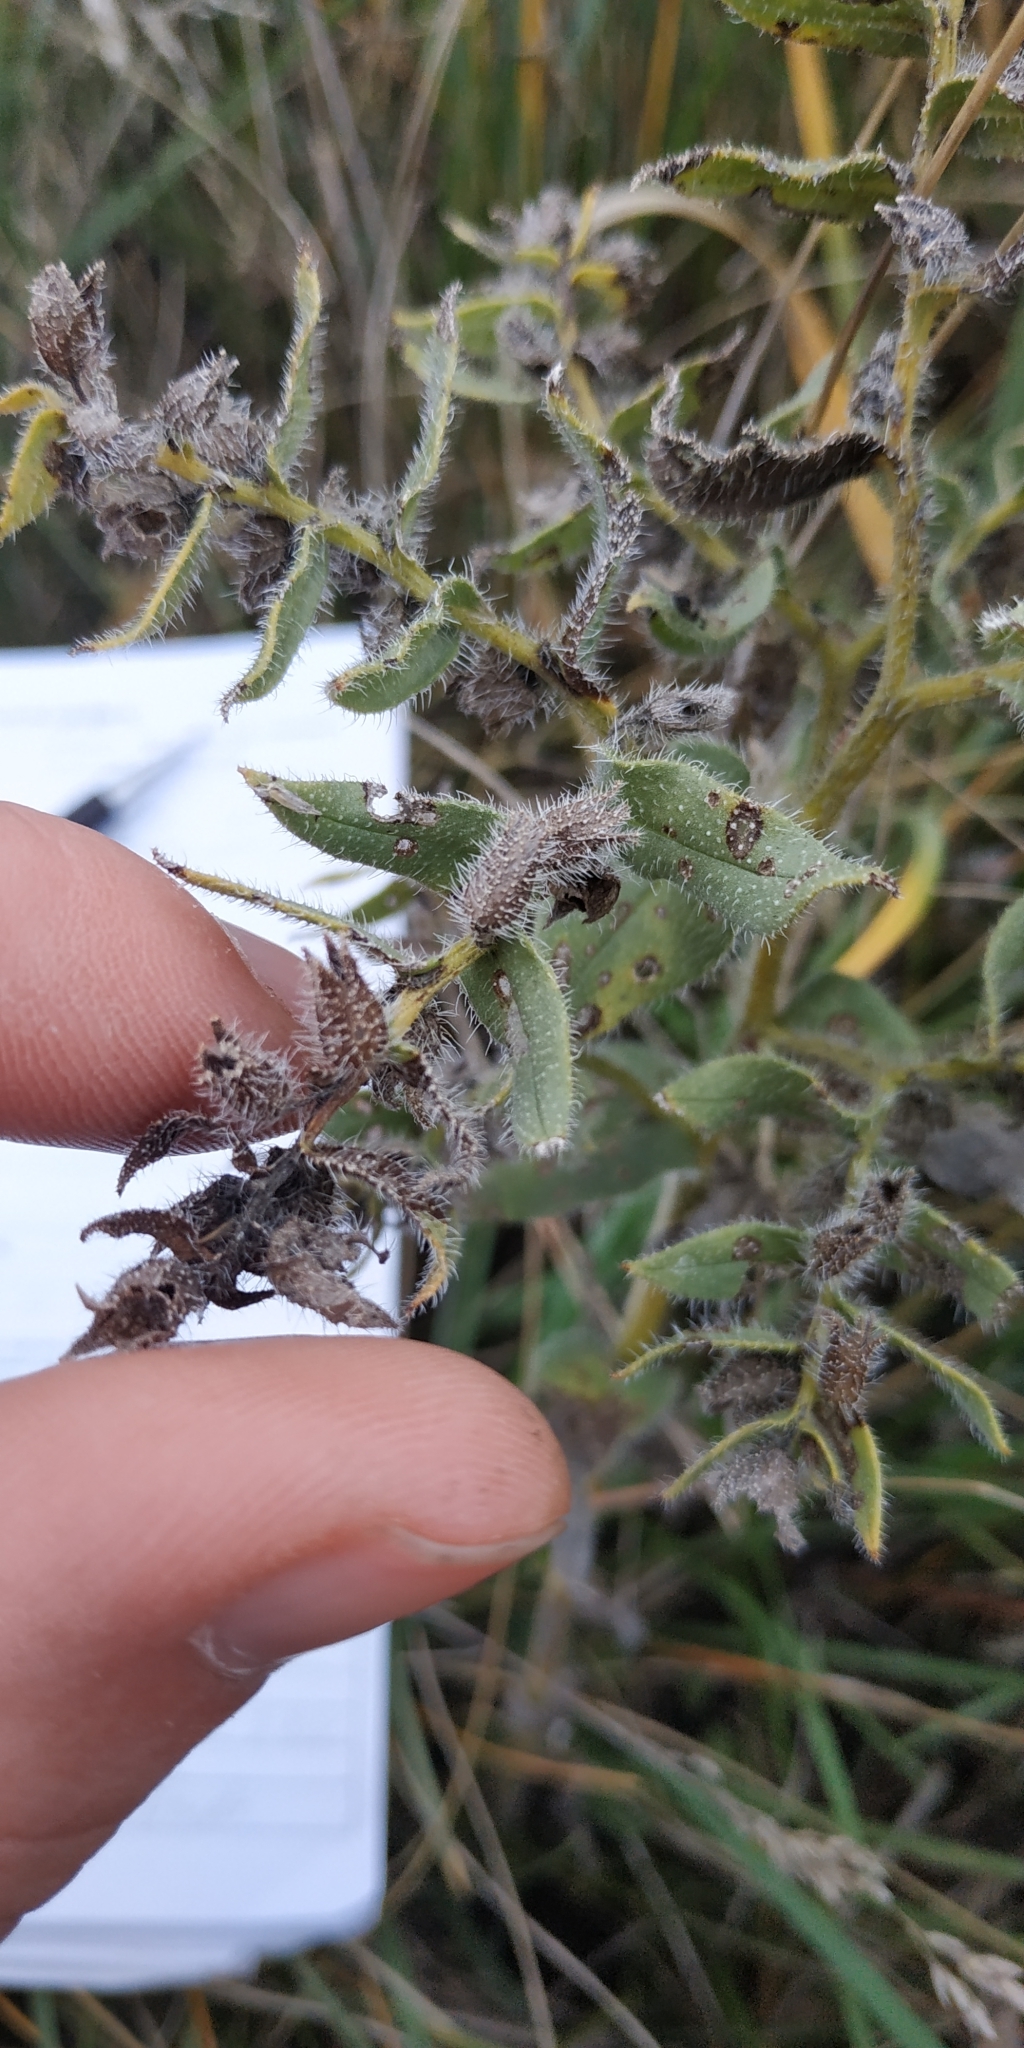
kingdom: Plantae
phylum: Tracheophyta
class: Magnoliopsida
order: Boraginales
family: Boraginaceae
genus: Nonea
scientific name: Nonea pulla
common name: Brown nonea
